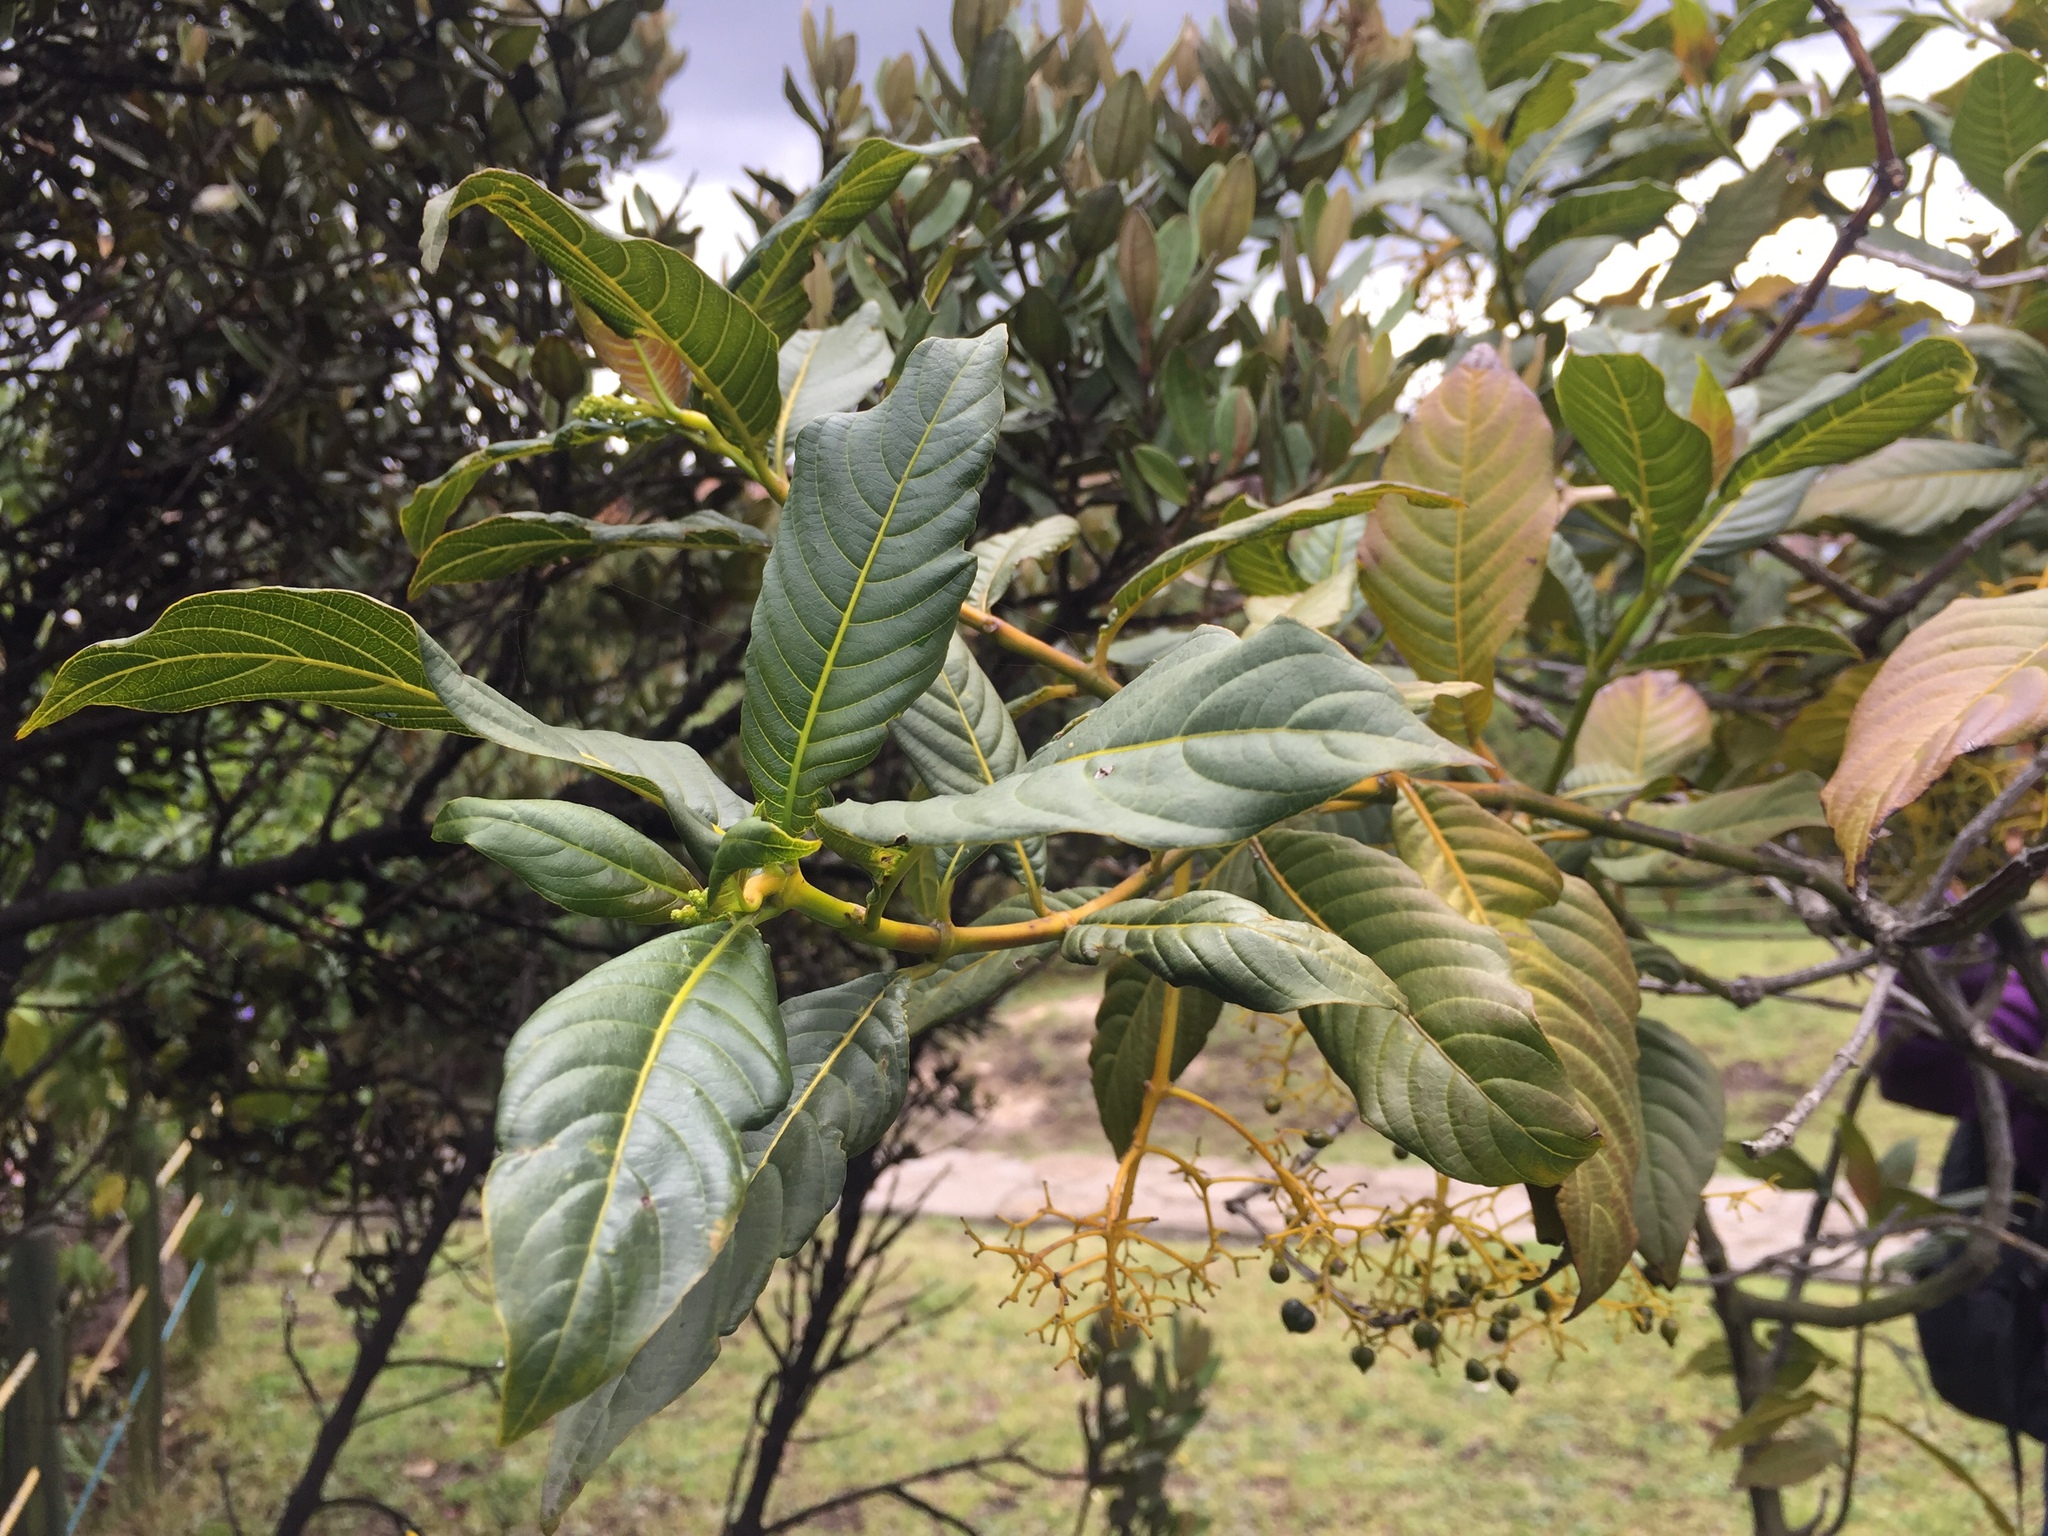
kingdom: Plantae
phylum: Tracheophyta
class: Magnoliopsida
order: Gentianales
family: Rubiaceae
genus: Palicourea
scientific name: Palicourea lineariflora
